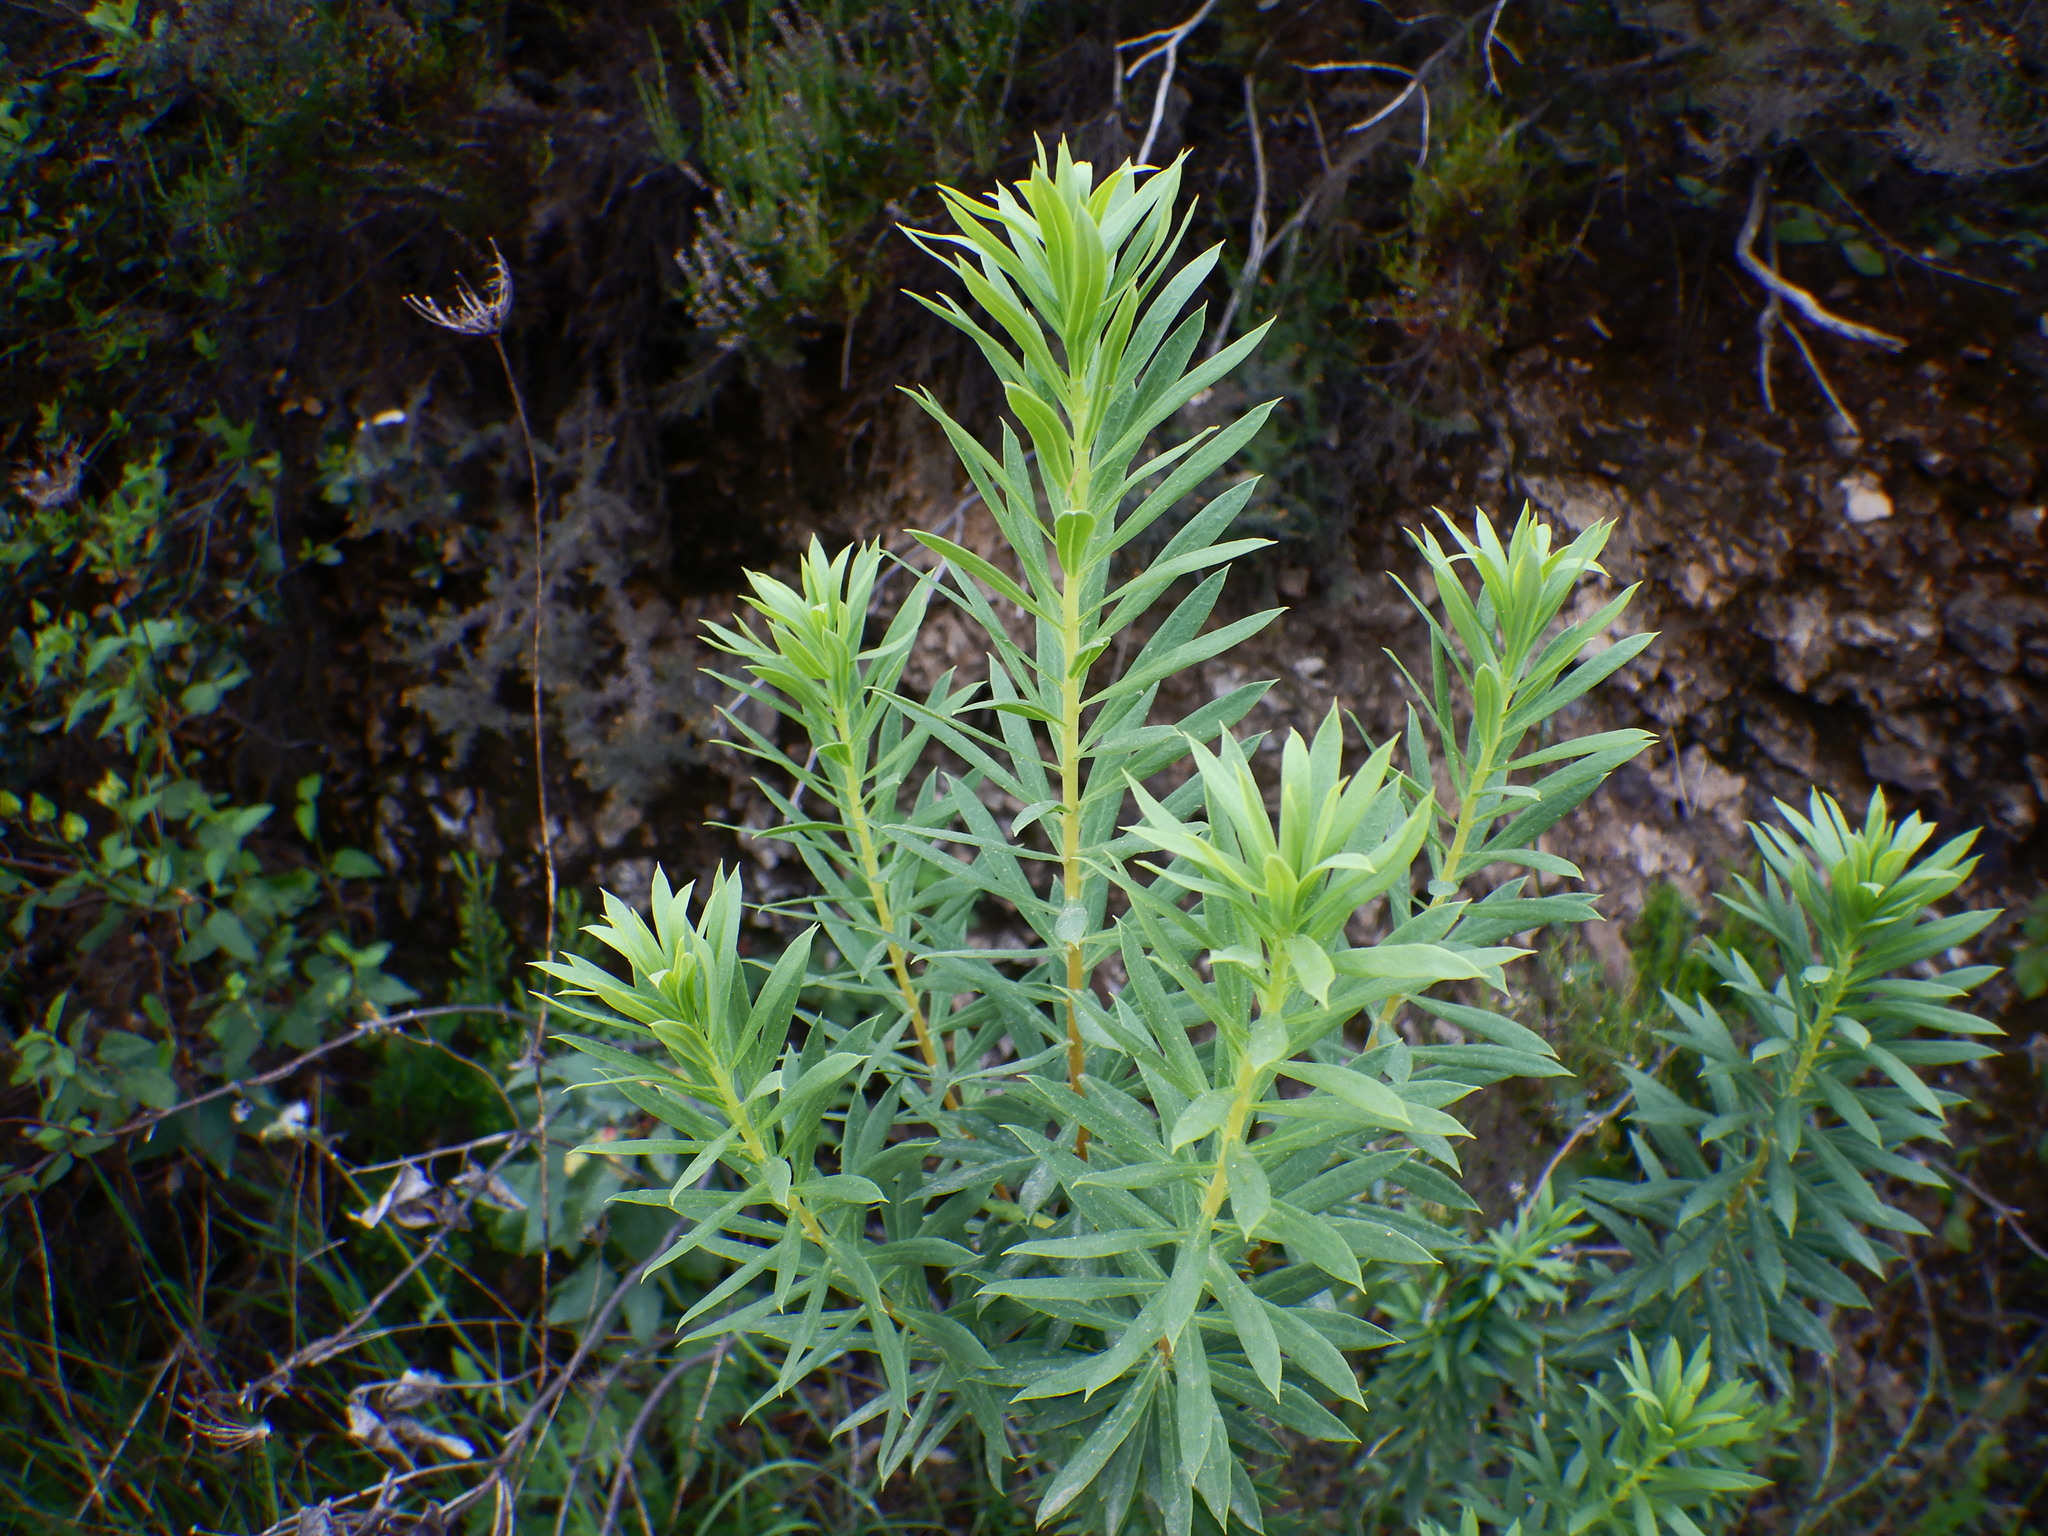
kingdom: Plantae
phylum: Tracheophyta
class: Magnoliopsida
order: Malvales
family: Thymelaeaceae
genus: Daphne
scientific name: Daphne gnidium
